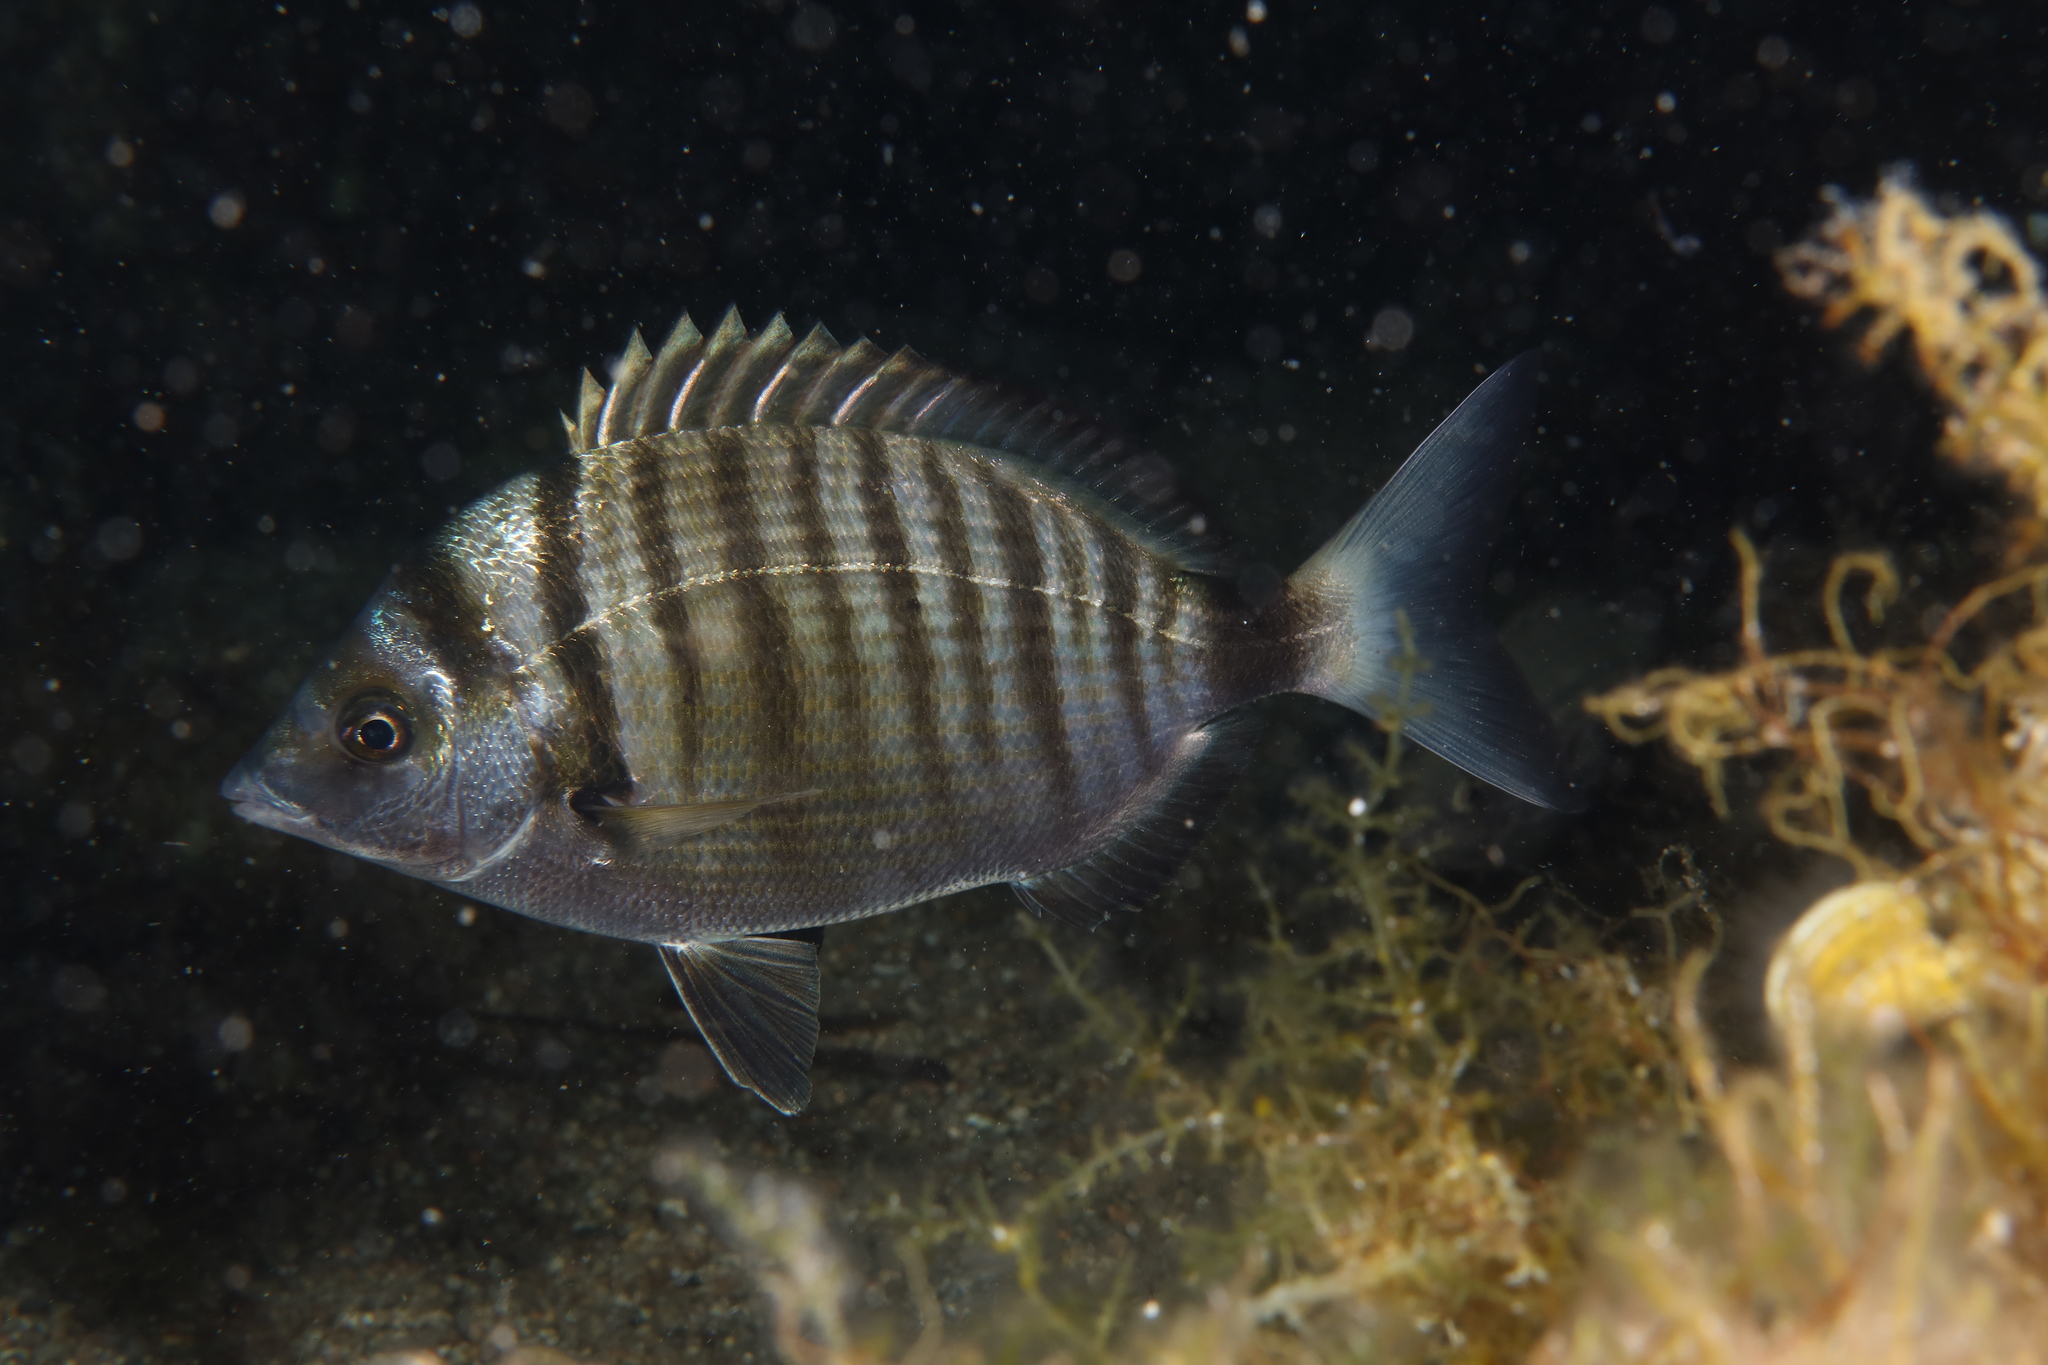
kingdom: Animalia
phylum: Chordata
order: Perciformes
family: Sparidae
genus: Diplodus
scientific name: Diplodus puntazzo
